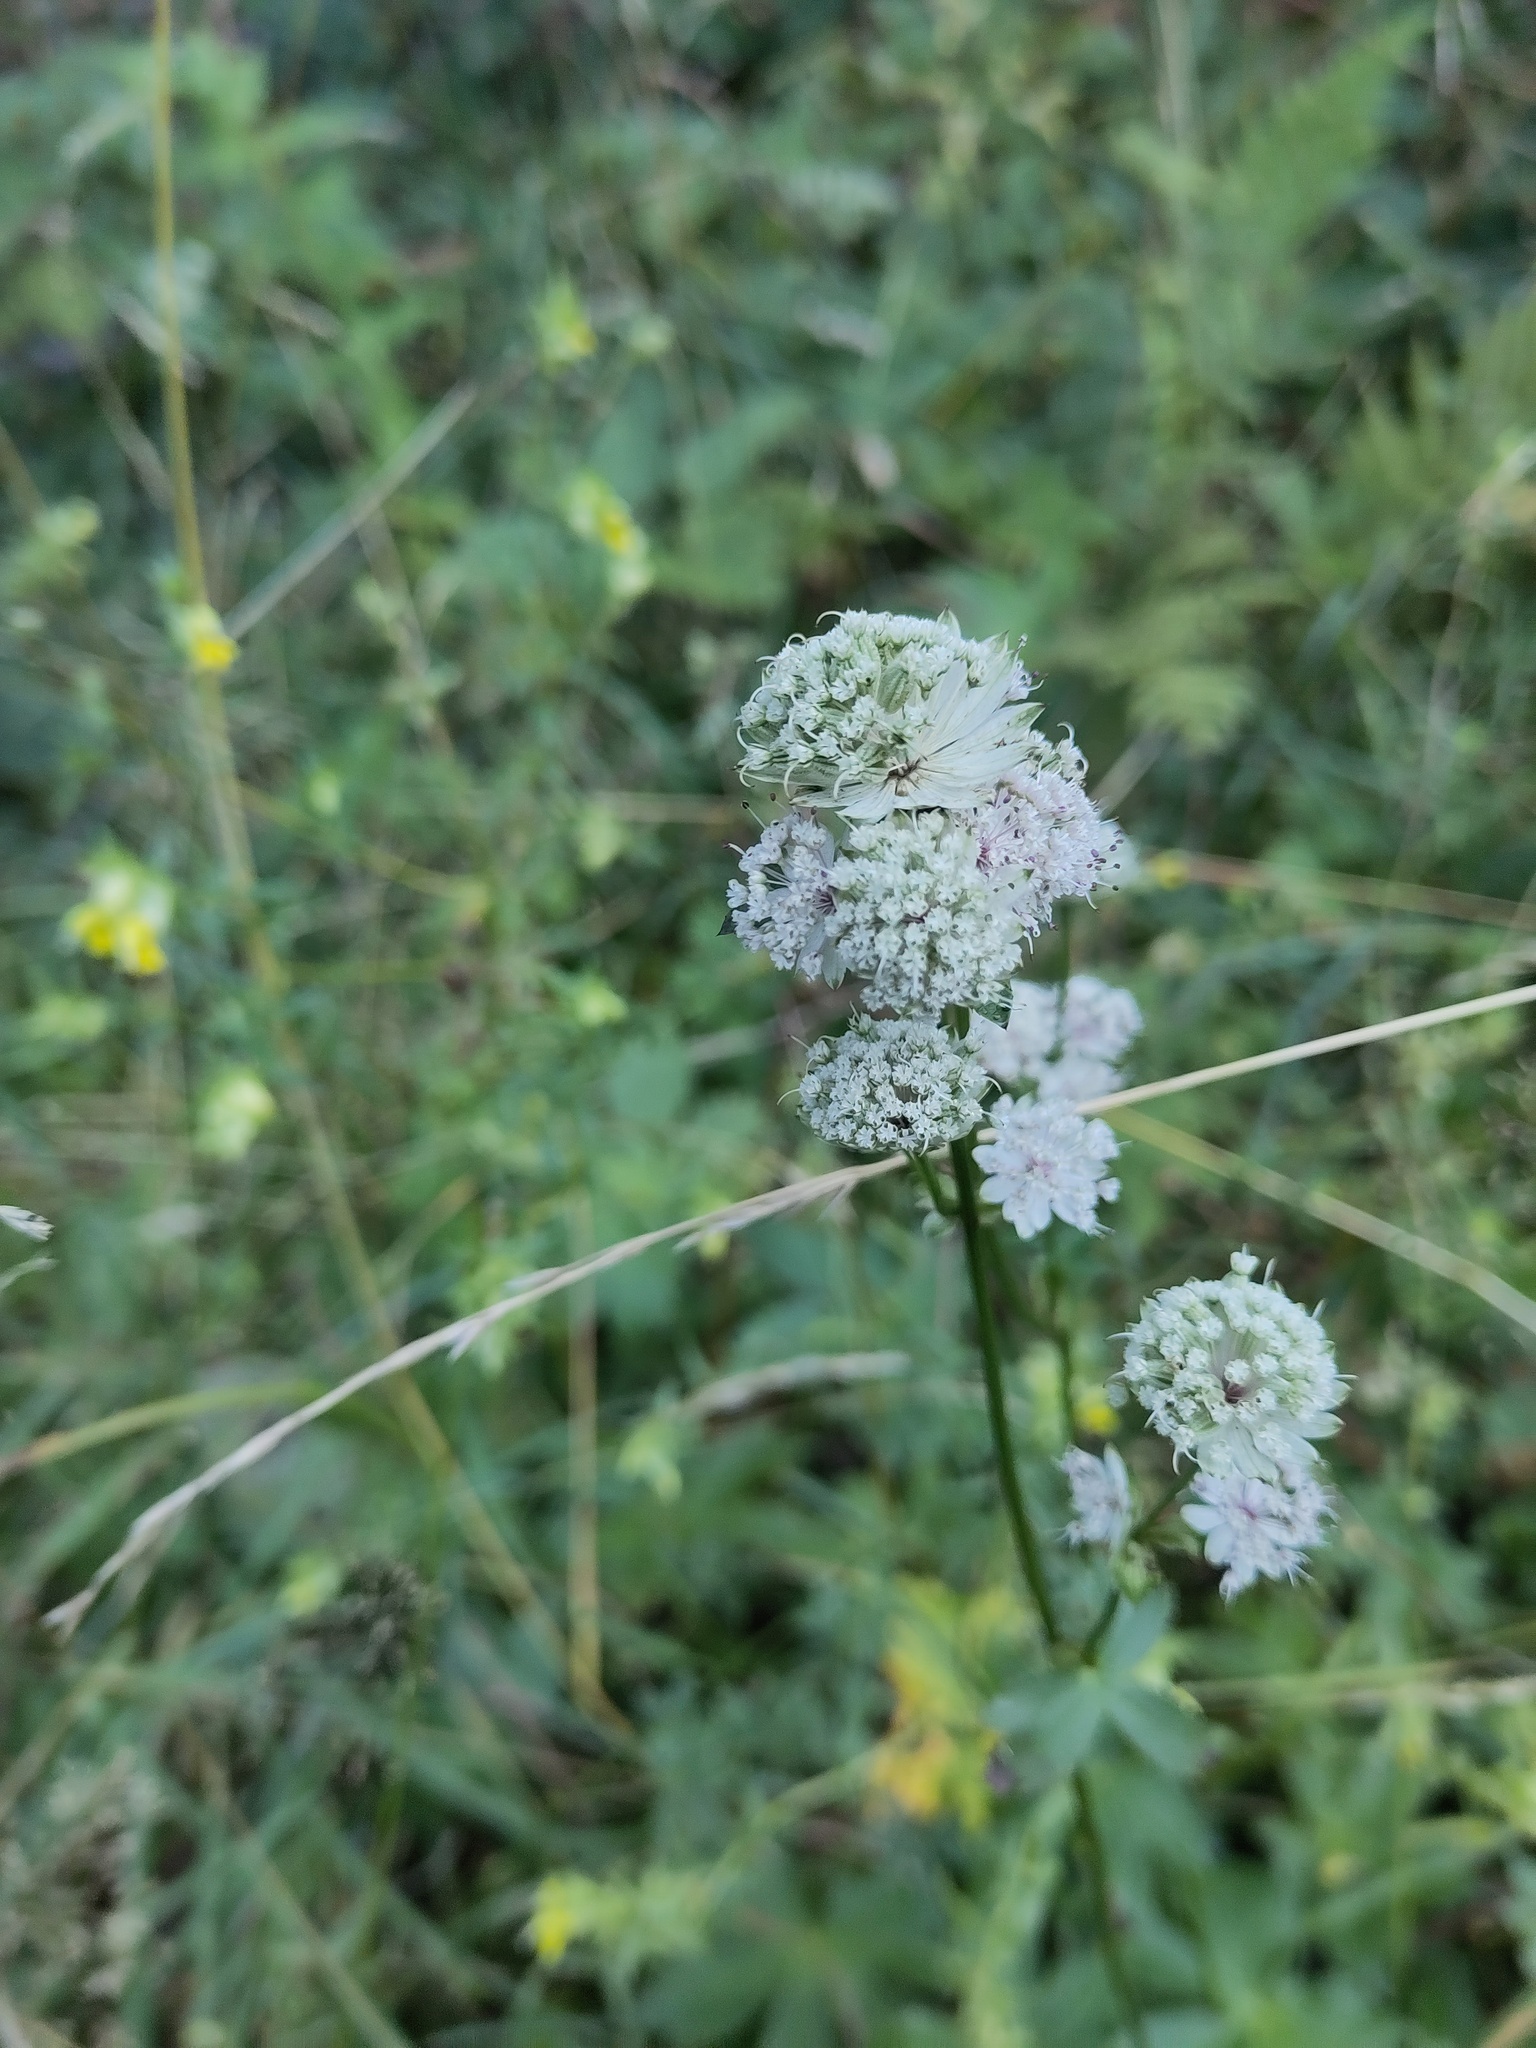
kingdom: Plantae
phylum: Tracheophyta
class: Magnoliopsida
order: Apiales
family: Apiaceae
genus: Astrantia
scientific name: Astrantia major
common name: Greater masterwort
